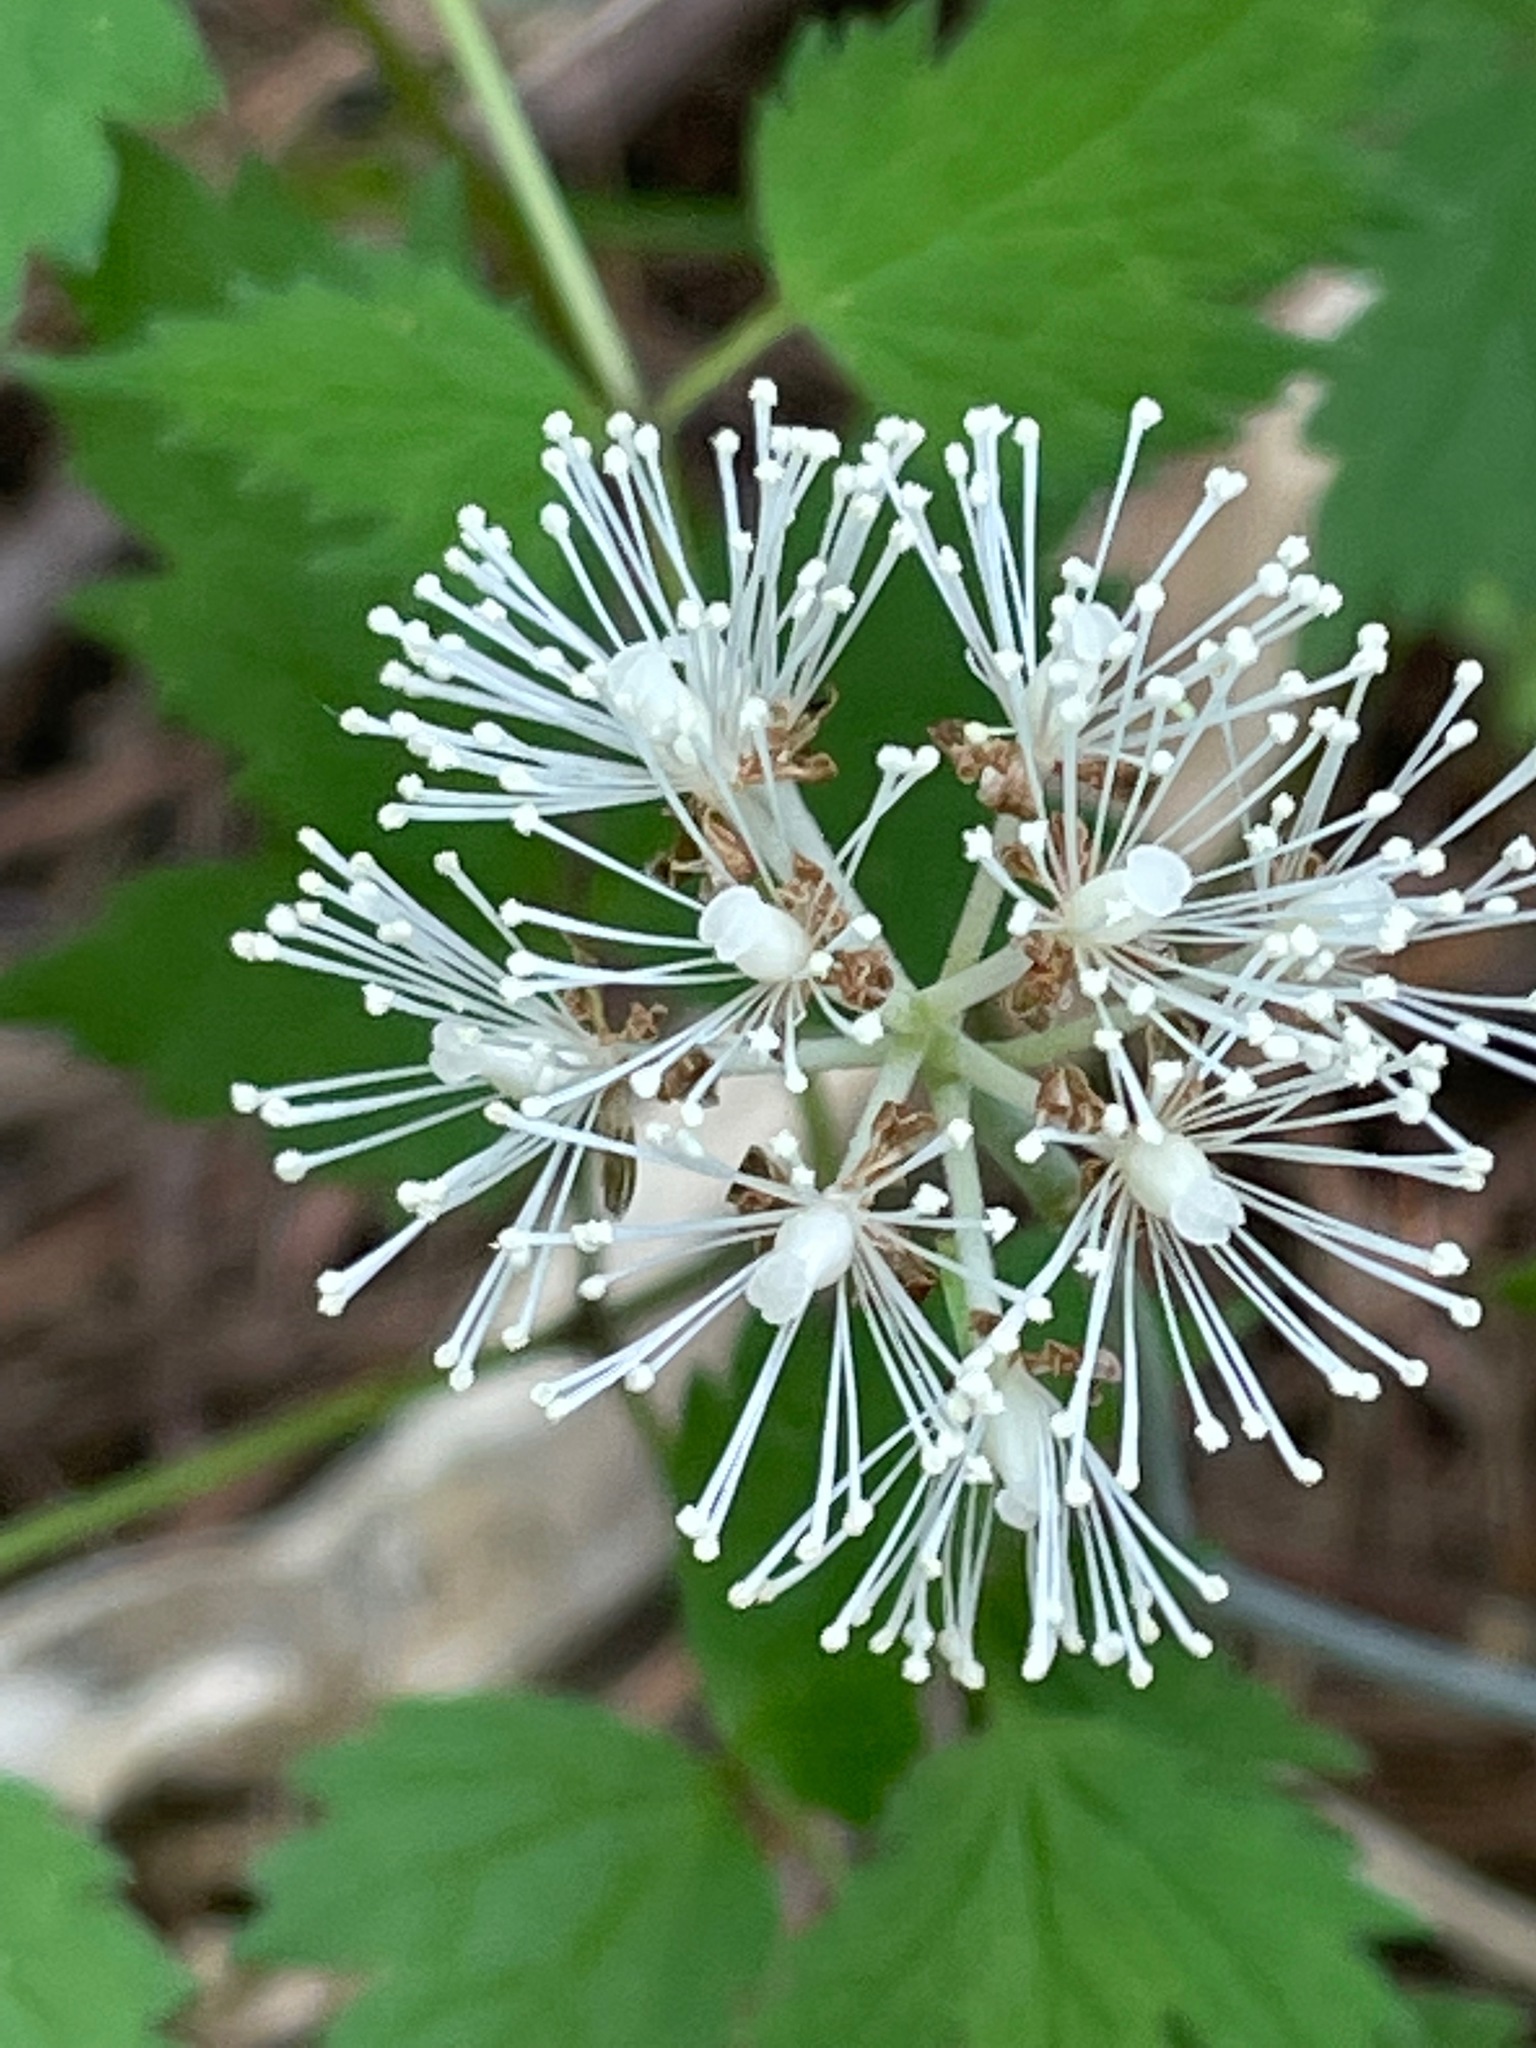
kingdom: Plantae
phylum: Tracheophyta
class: Magnoliopsida
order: Ranunculales
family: Ranunculaceae
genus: Actaea
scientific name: Actaea pachypoda
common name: Doll's-eyes
